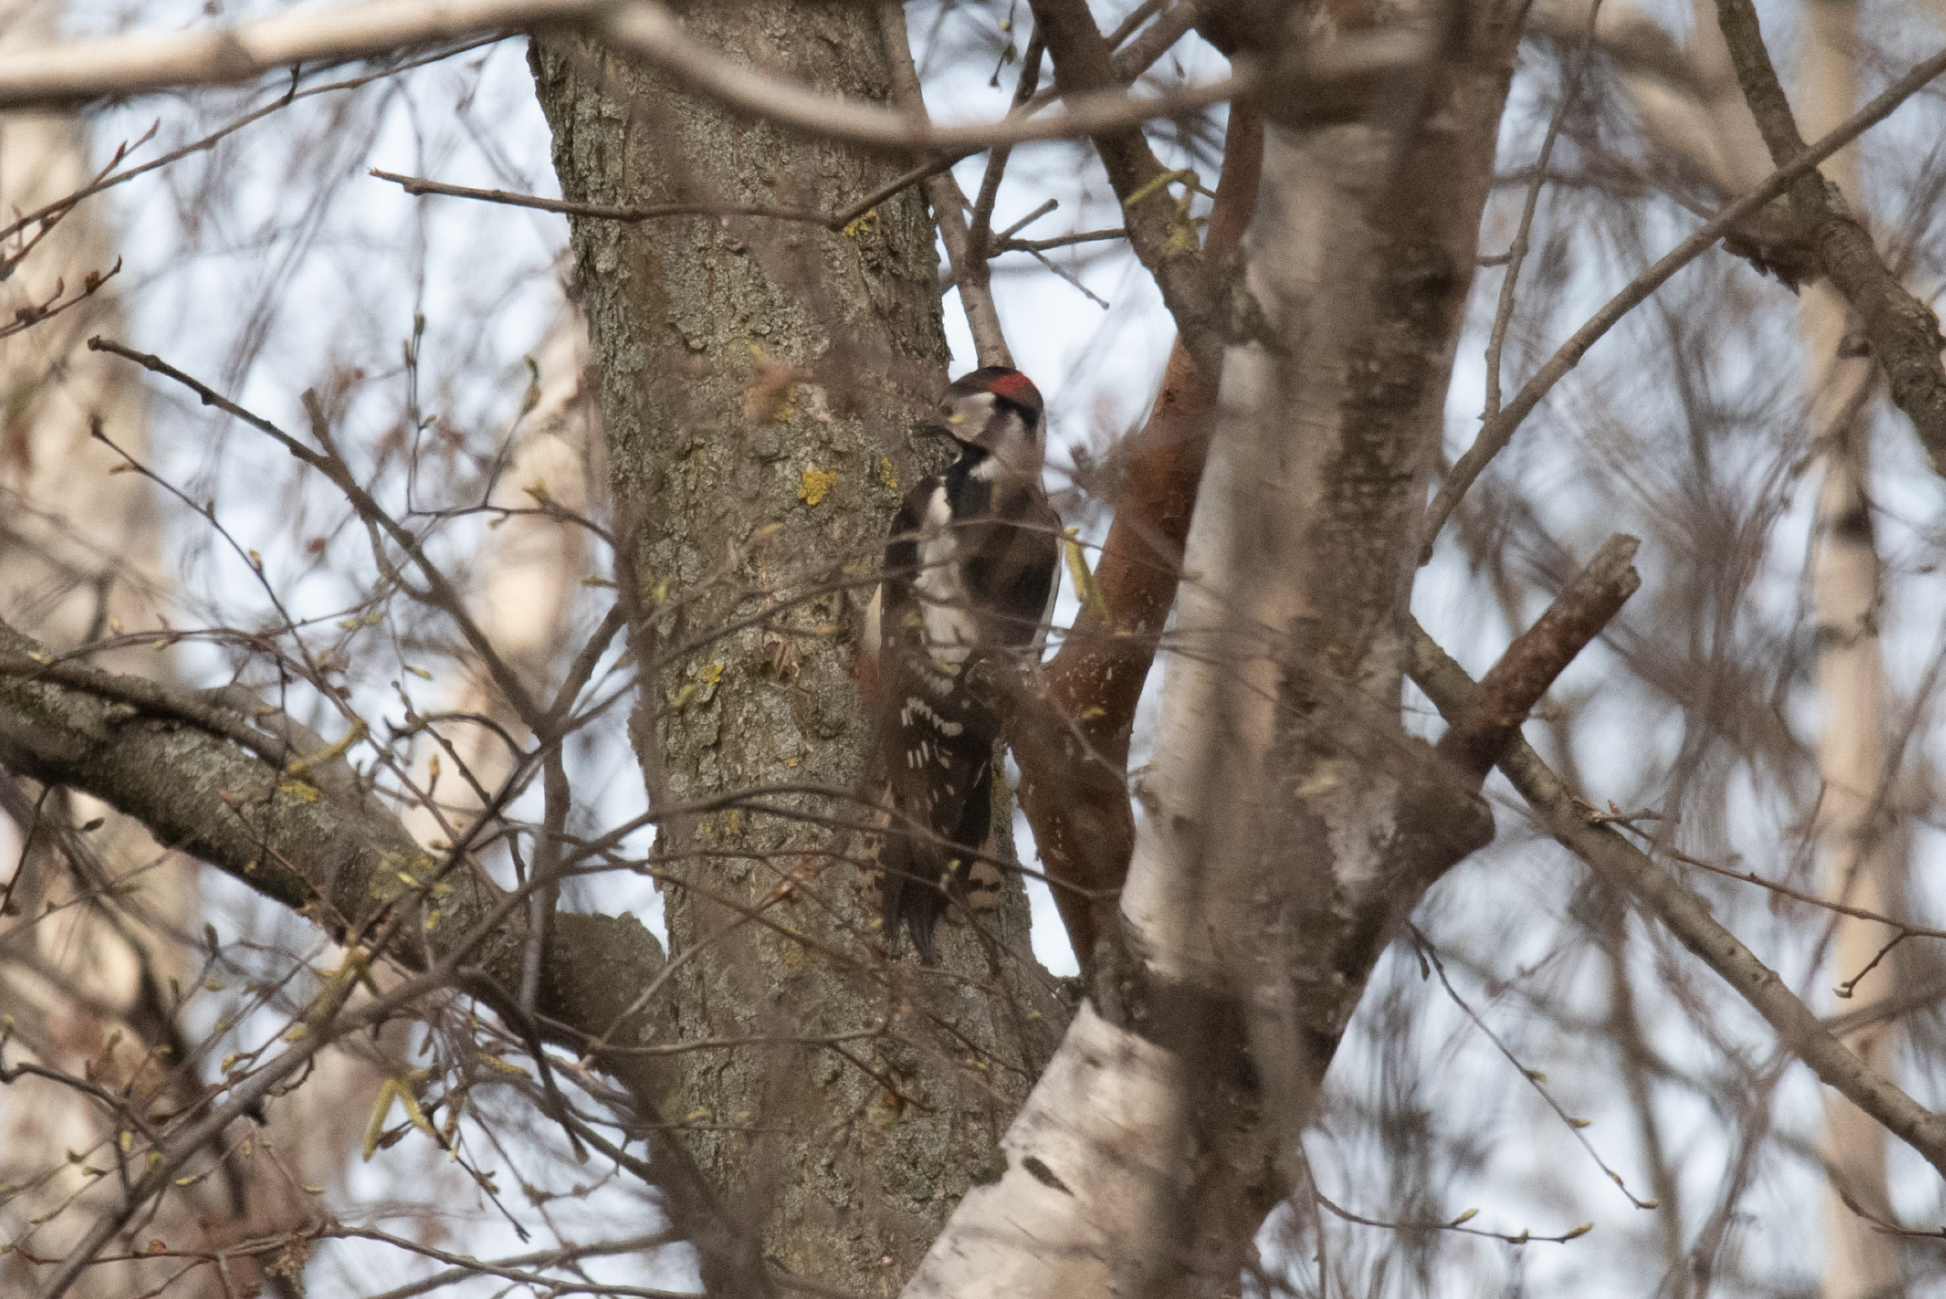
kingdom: Animalia
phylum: Chordata
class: Aves
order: Piciformes
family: Picidae
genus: Dendrocopos
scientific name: Dendrocopos major
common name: Great spotted woodpecker
